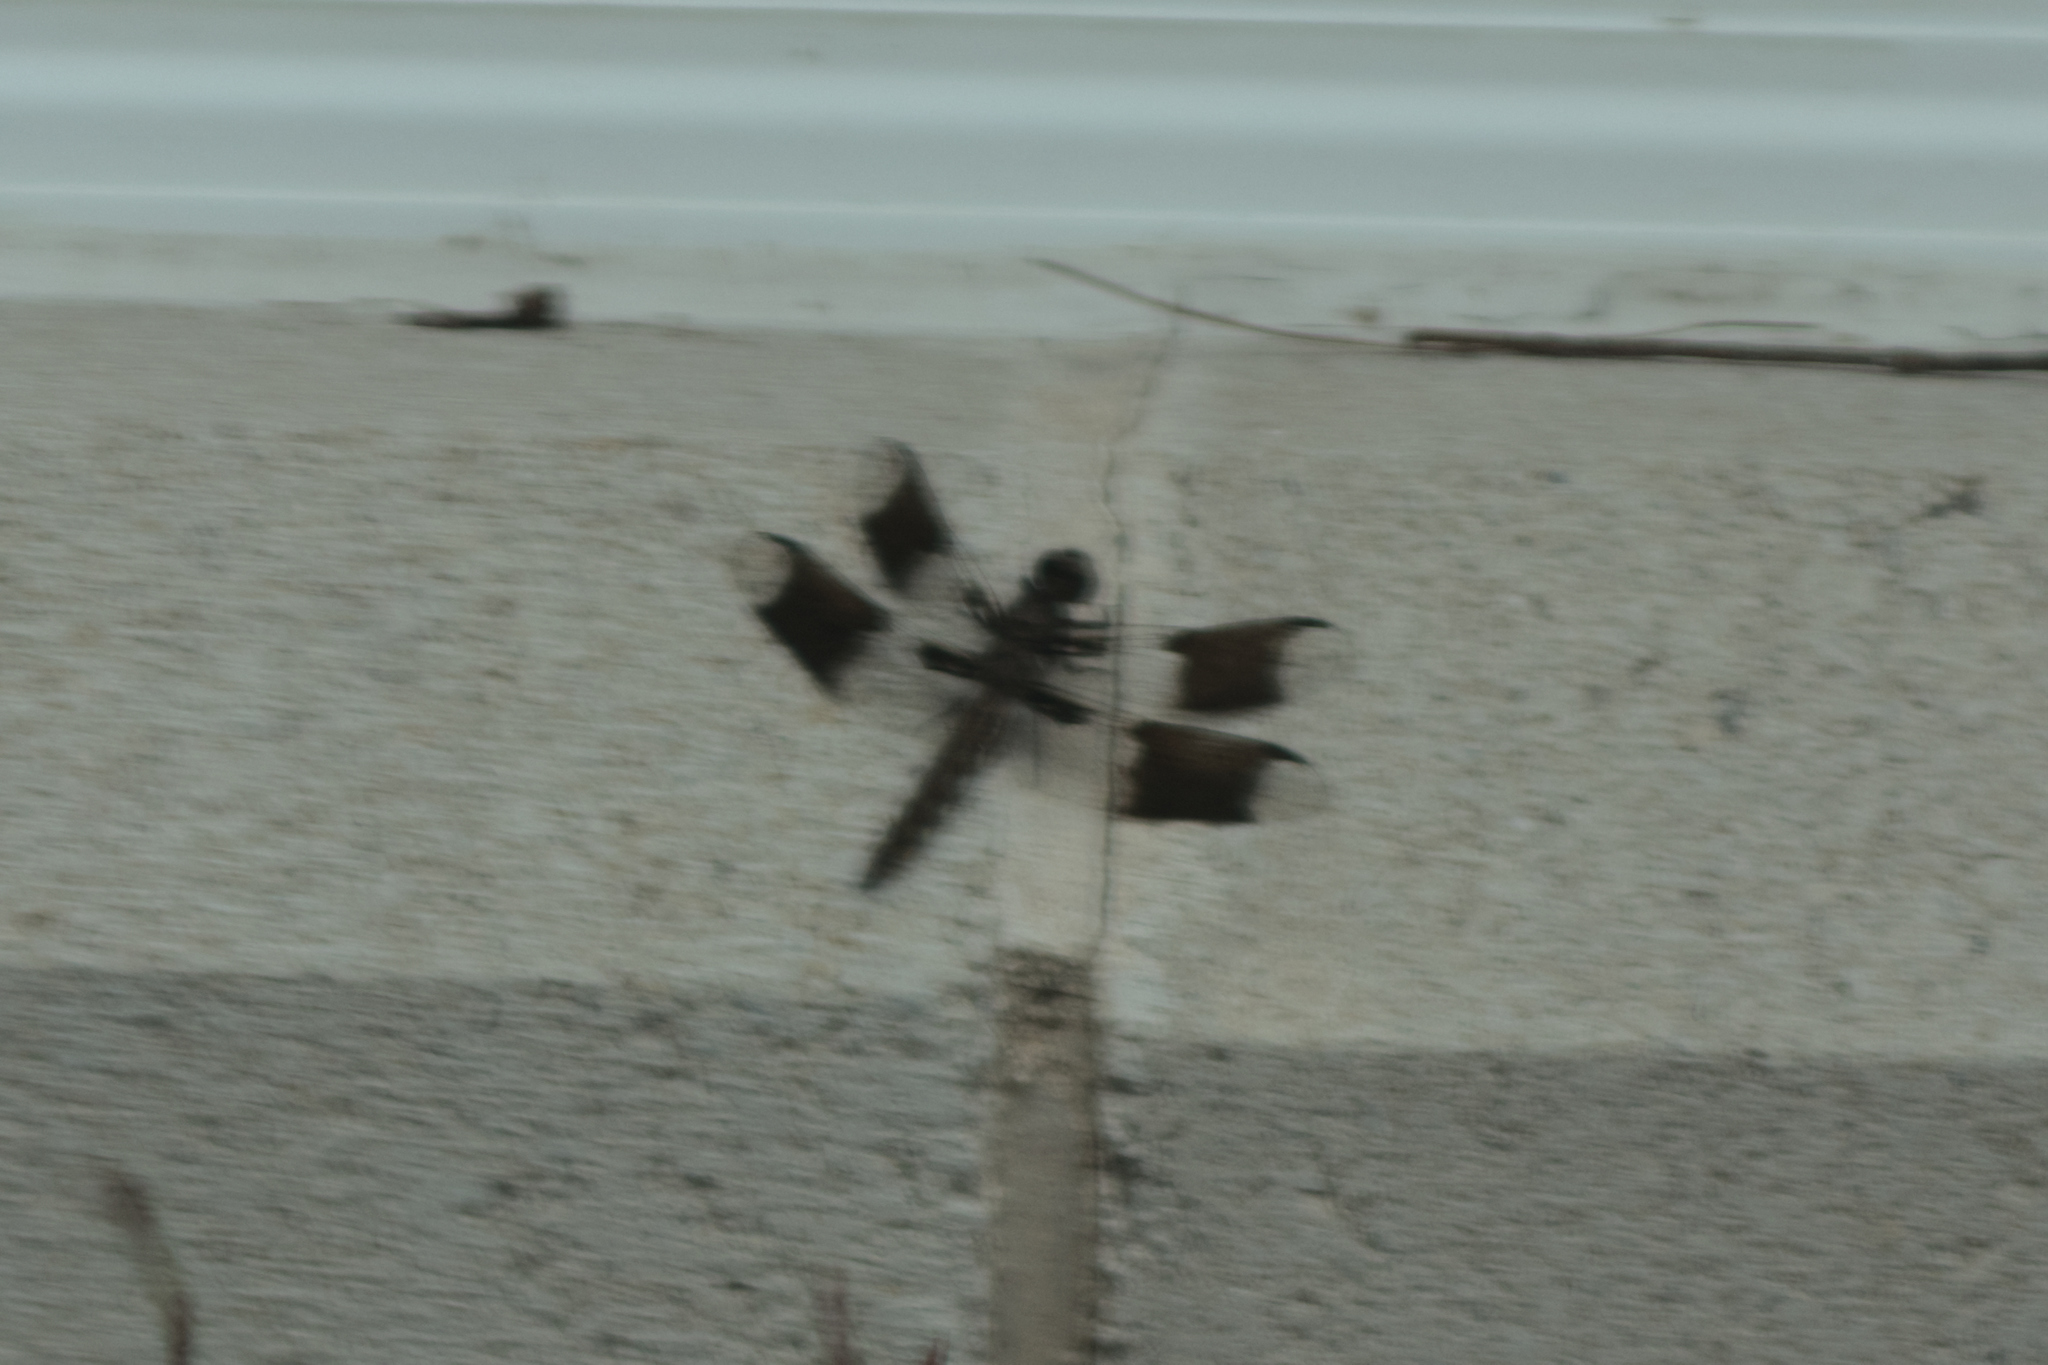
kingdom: Animalia
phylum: Arthropoda
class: Insecta
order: Odonata
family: Libellulidae
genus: Plathemis
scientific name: Plathemis lydia
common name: Common whitetail
